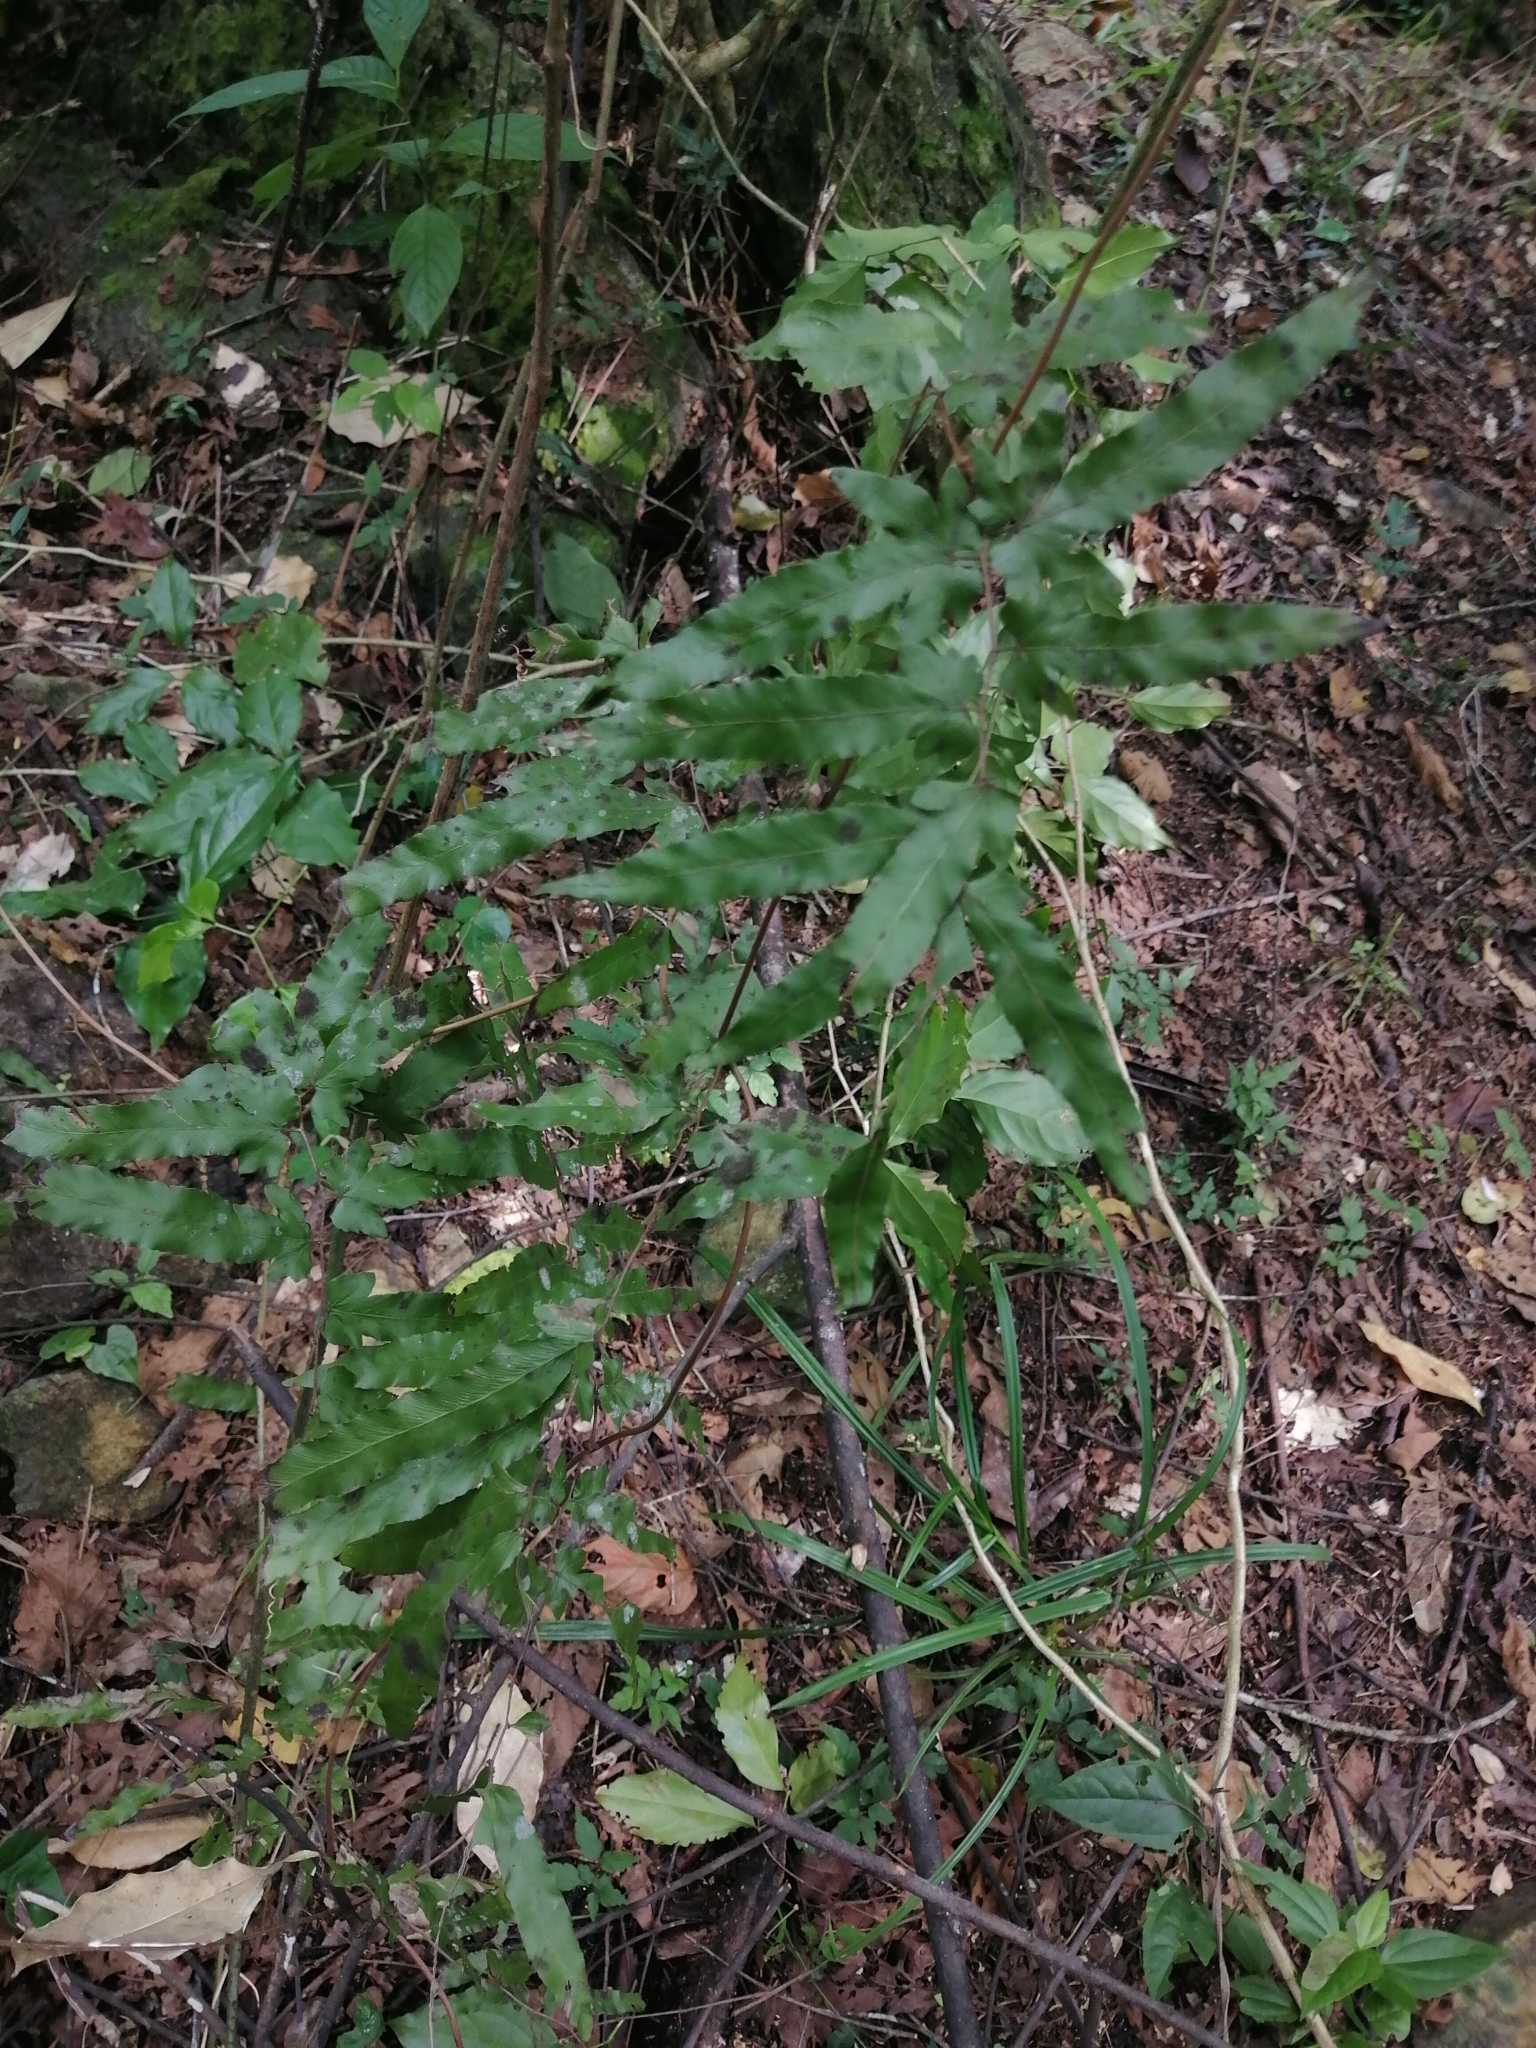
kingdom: Plantae
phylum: Tracheophyta
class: Polypodiopsida
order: Schizaeales
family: Lygodiaceae
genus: Lygodium
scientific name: Lygodium venustum
